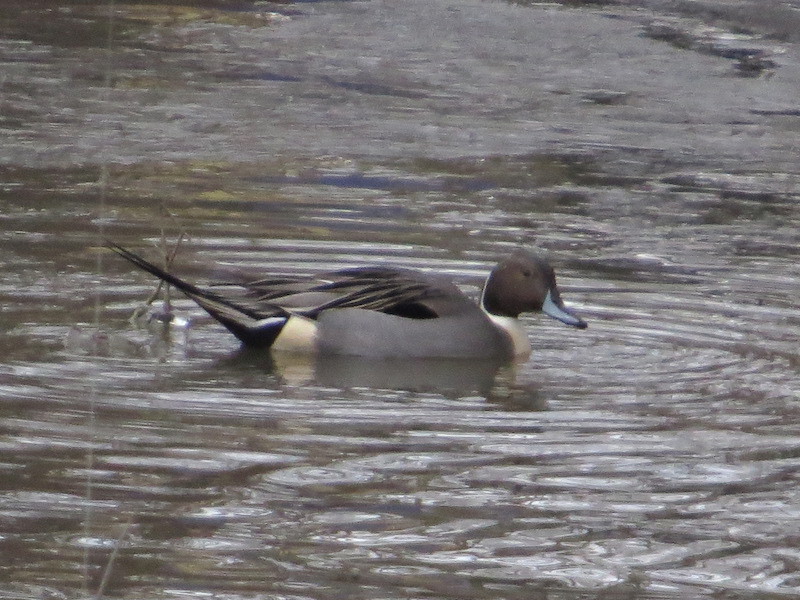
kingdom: Animalia
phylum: Chordata
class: Aves
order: Anseriformes
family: Anatidae
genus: Anas
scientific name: Anas acuta
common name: Northern pintail
